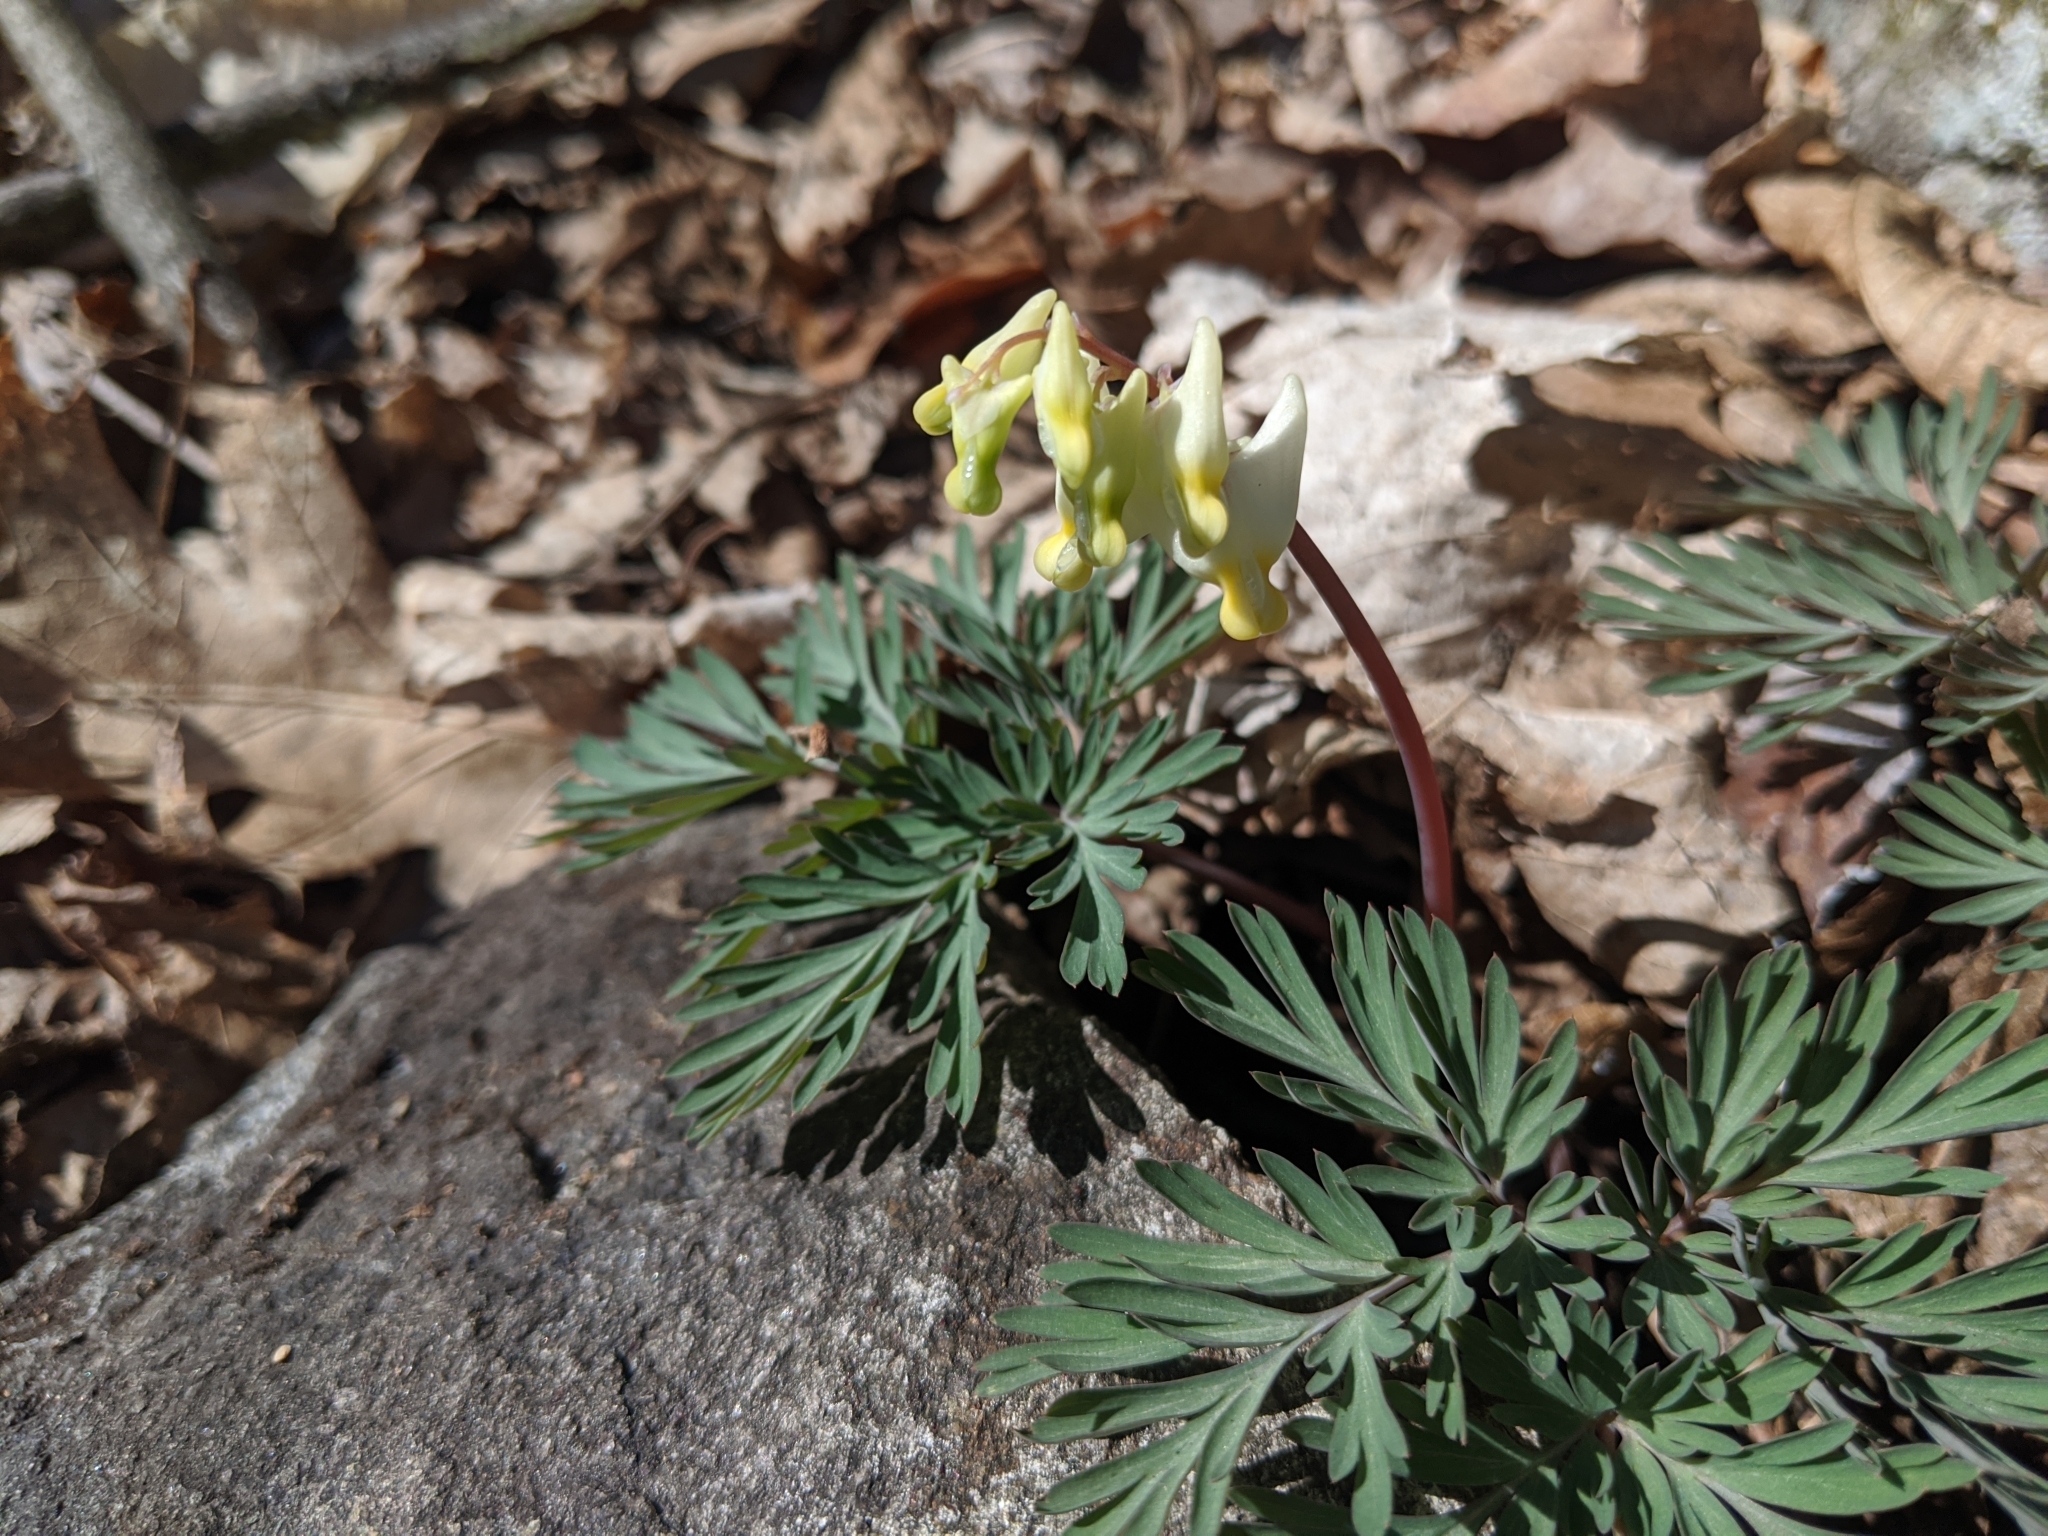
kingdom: Plantae
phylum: Tracheophyta
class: Magnoliopsida
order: Ranunculales
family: Papaveraceae
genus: Dicentra
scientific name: Dicentra cucullaria
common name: Dutchman's breeches
